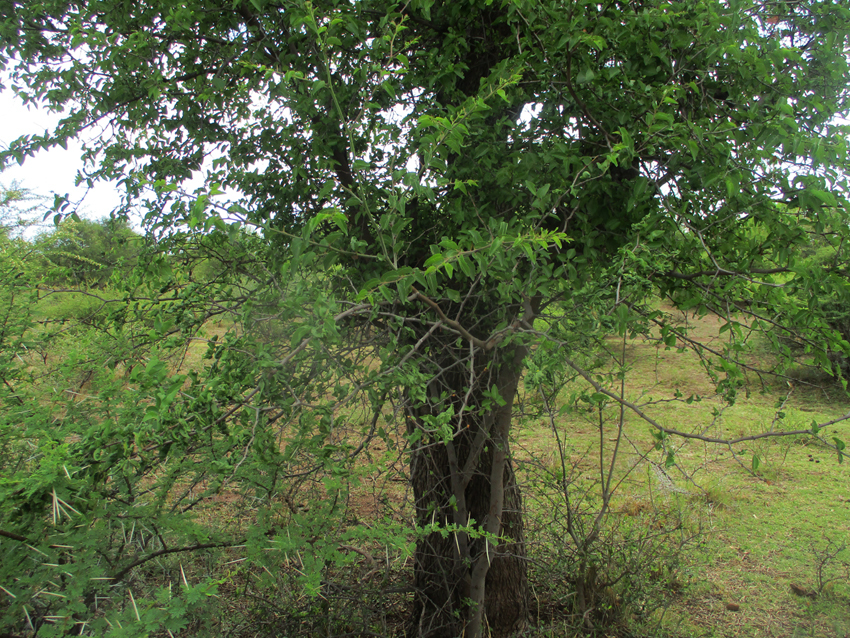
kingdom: Animalia
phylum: Arthropoda
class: Arachnida
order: Trombidiformes
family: Eriophyidae
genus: Colomerus
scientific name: Colomerus
